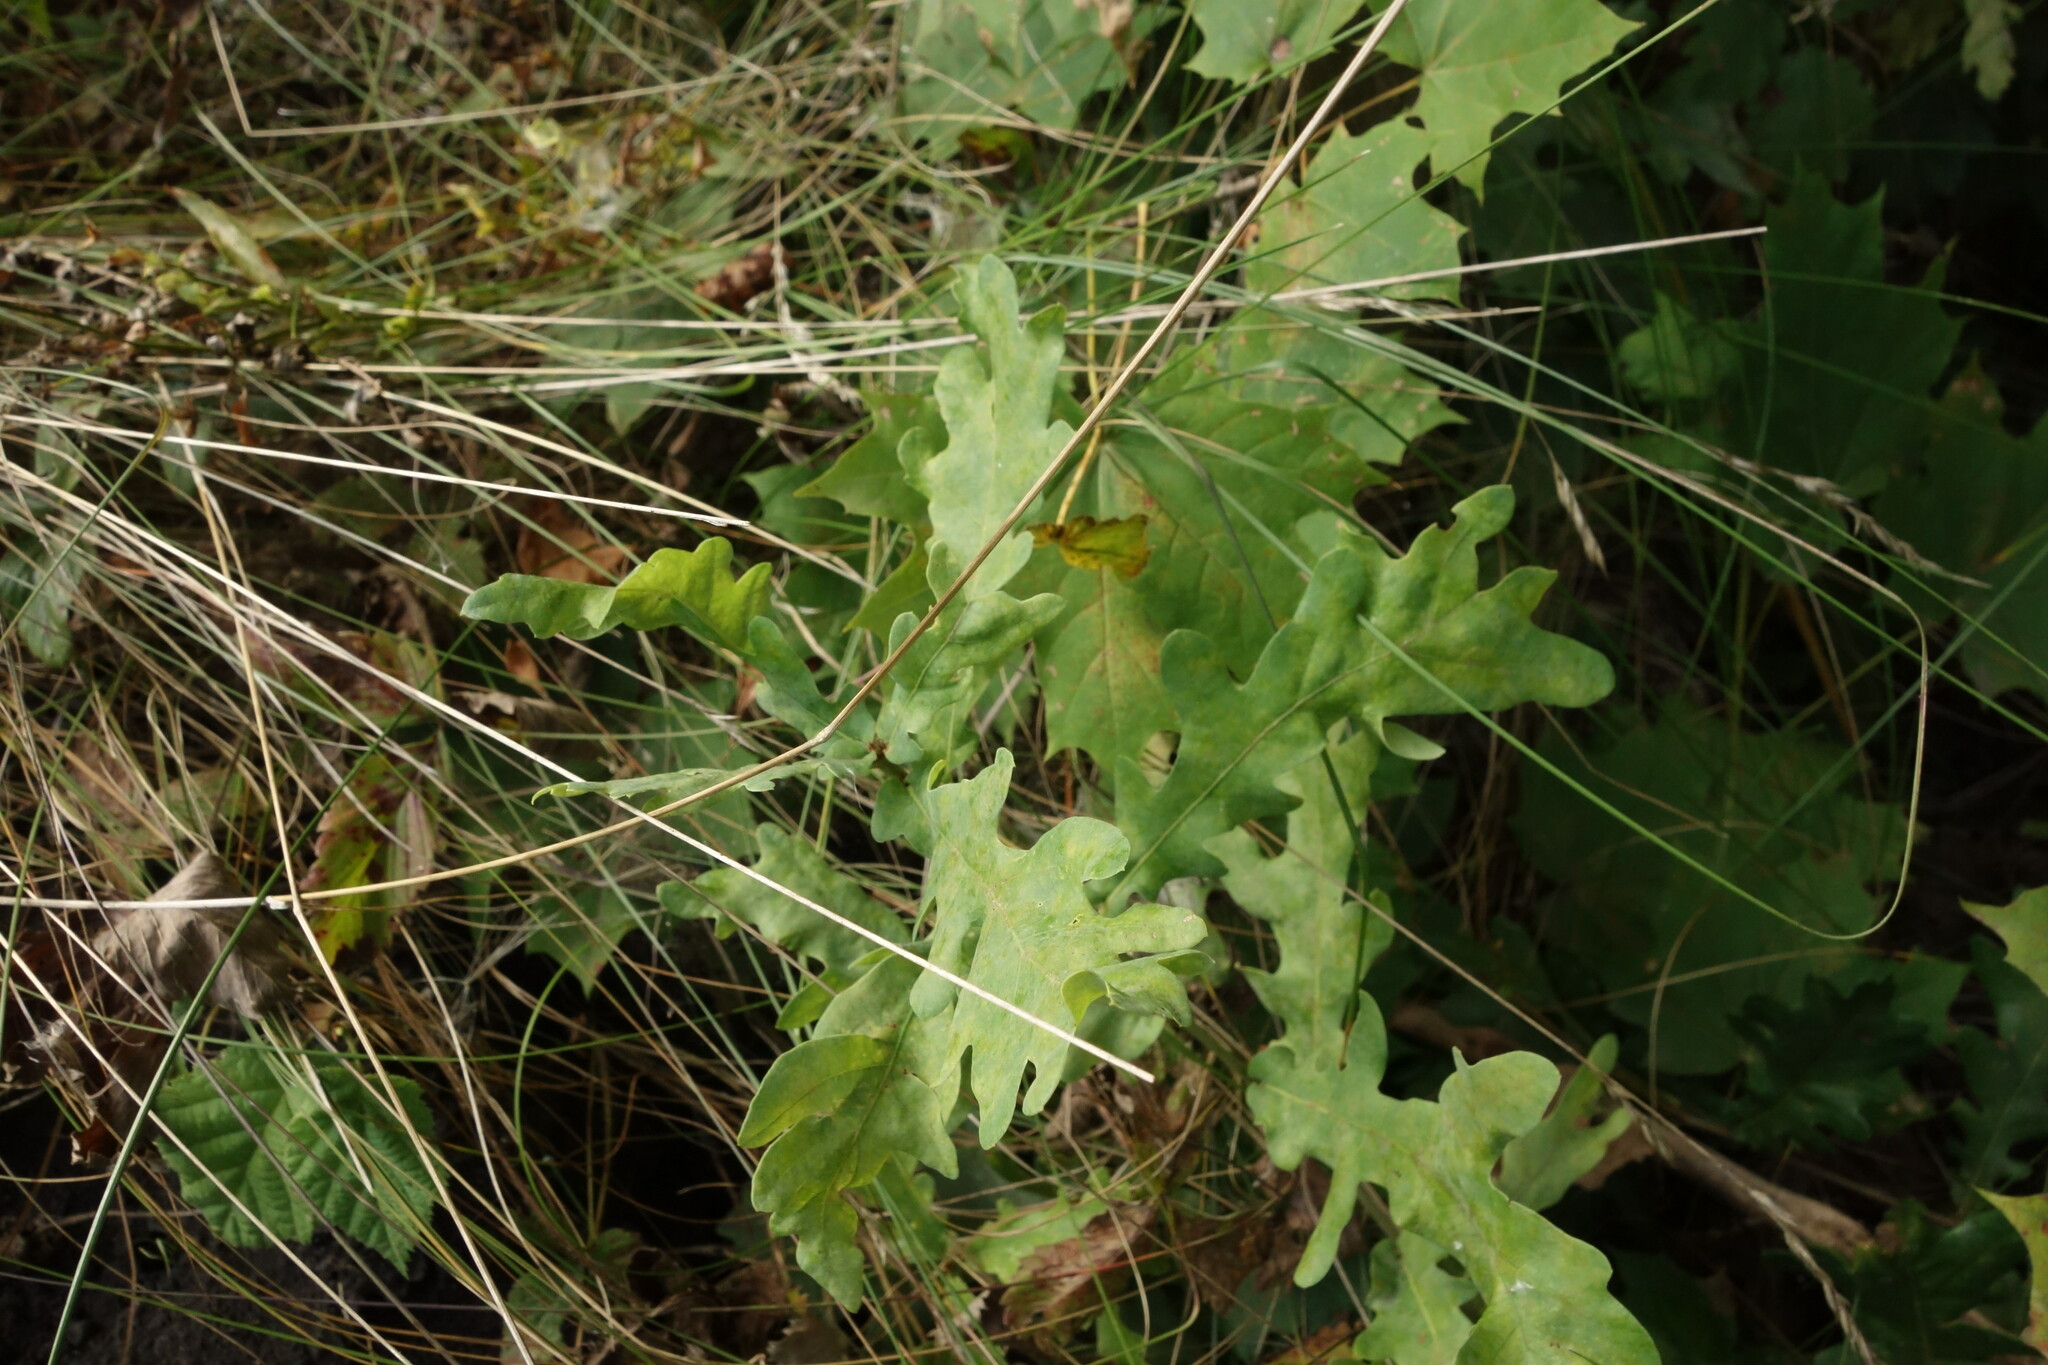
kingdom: Plantae
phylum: Tracheophyta
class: Magnoliopsida
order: Fagales
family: Fagaceae
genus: Quercus
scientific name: Quercus robur
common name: Pedunculate oak
